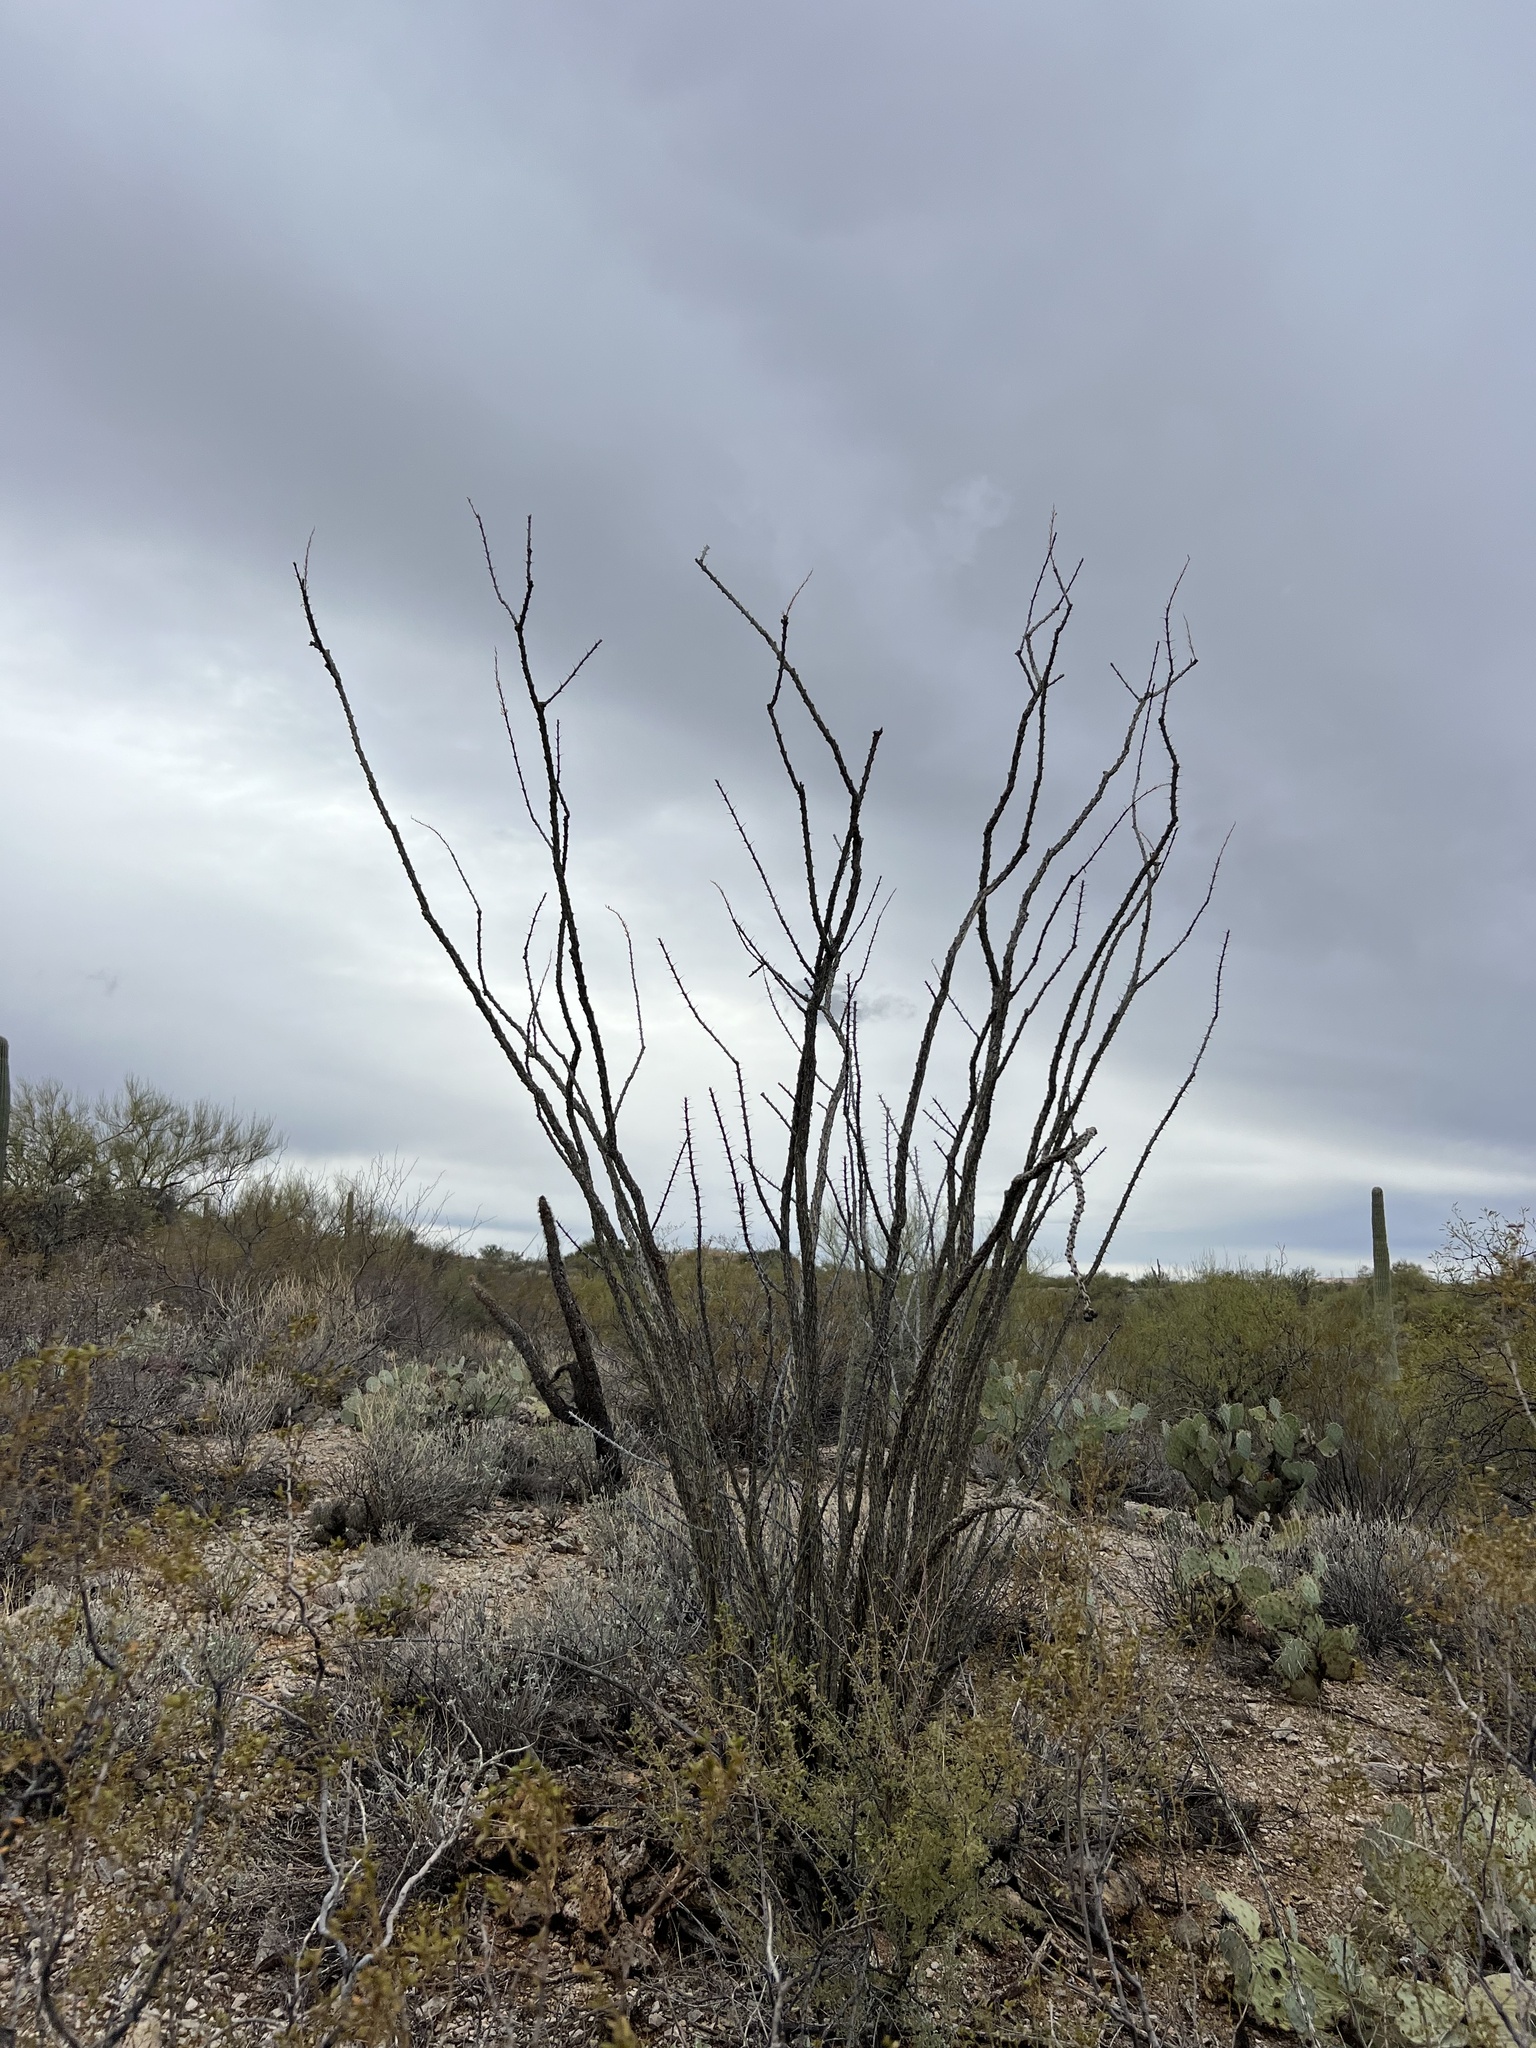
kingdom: Plantae
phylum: Tracheophyta
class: Magnoliopsida
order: Ericales
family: Fouquieriaceae
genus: Fouquieria
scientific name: Fouquieria splendens
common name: Vine-cactus
